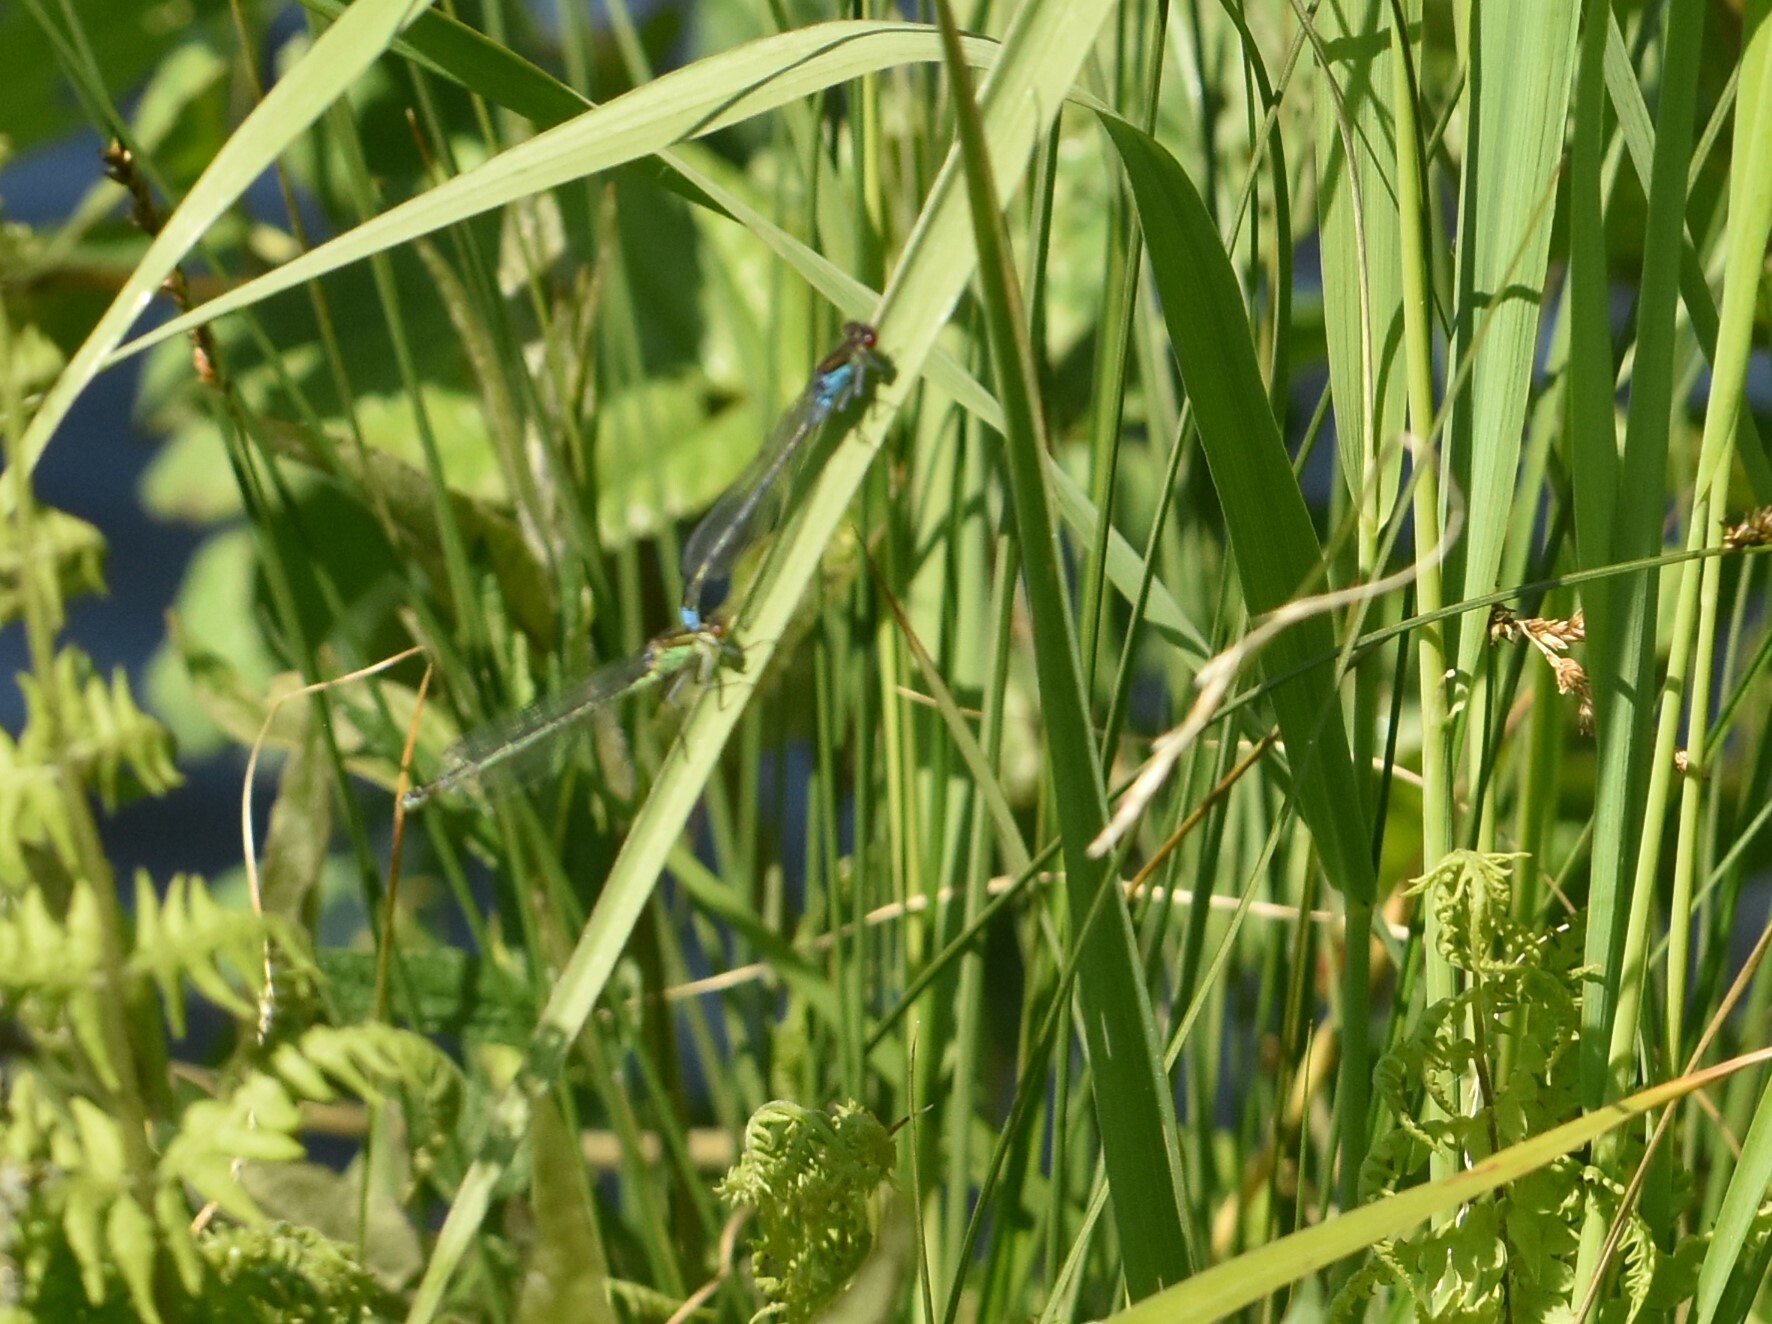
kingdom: Animalia
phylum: Arthropoda
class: Insecta
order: Odonata
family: Coenagrionidae
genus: Erythromma
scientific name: Erythromma najas
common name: Red-eyed damselfly
